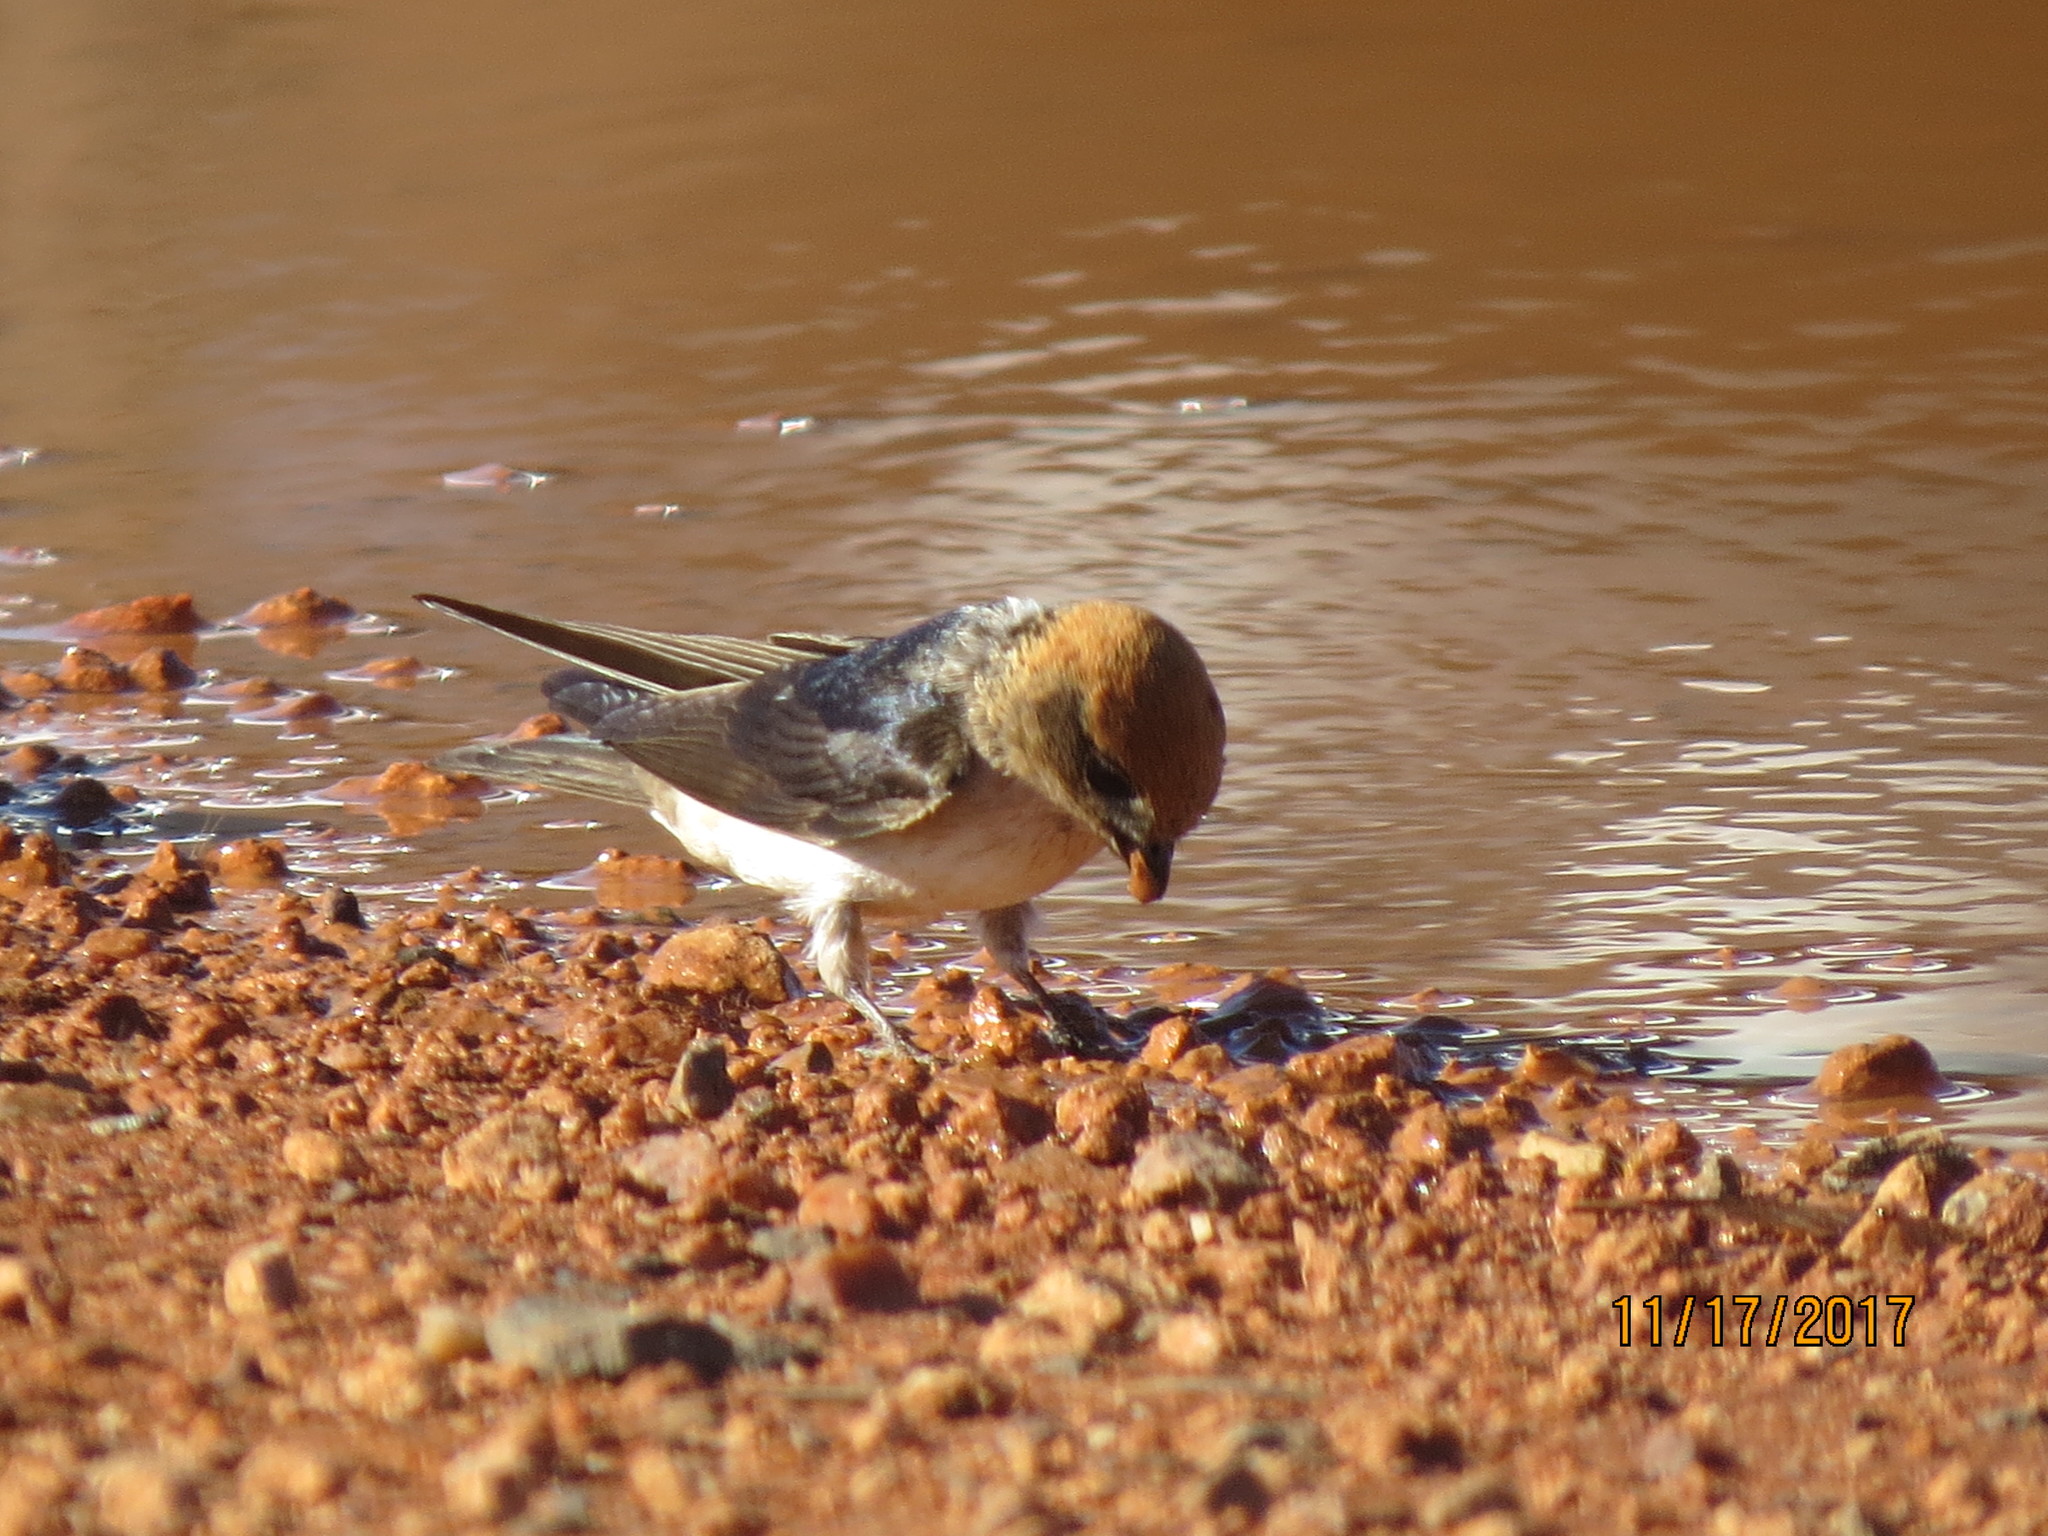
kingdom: Animalia
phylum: Chordata
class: Aves
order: Passeriformes
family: Hirundinidae
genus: Petrochelidon
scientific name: Petrochelidon ariel
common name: Fairy martin
